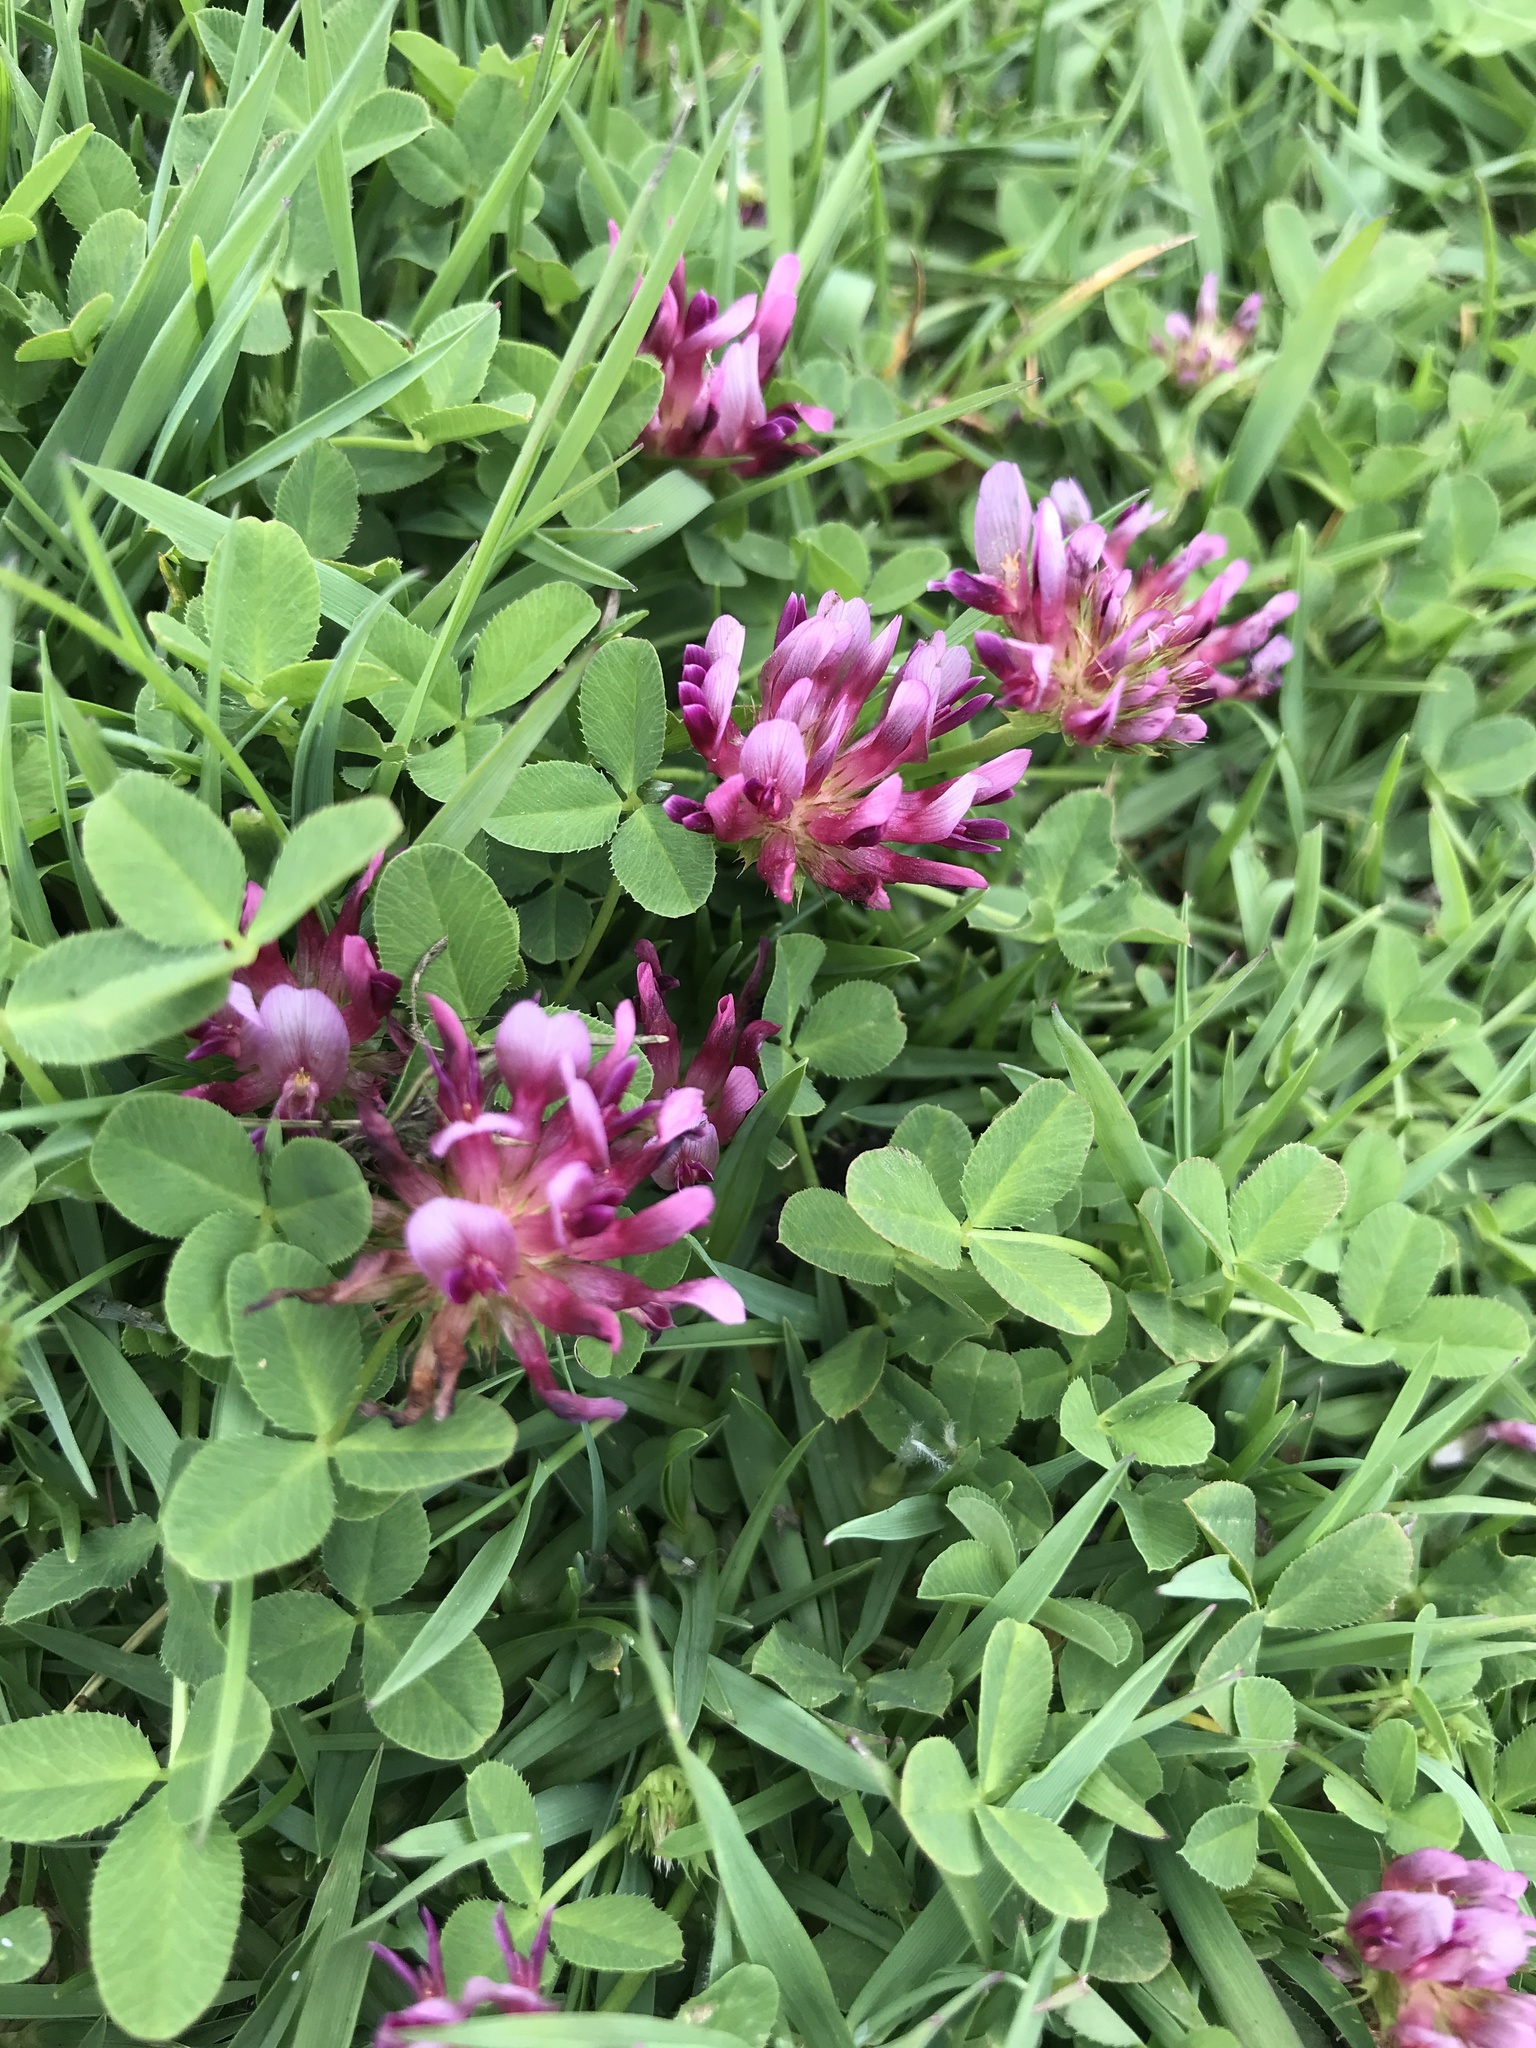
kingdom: Plantae
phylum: Tracheophyta
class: Magnoliopsida
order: Fabales
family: Fabaceae
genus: Trifolium
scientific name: Trifolium wormskioldii
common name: Springbank clover
